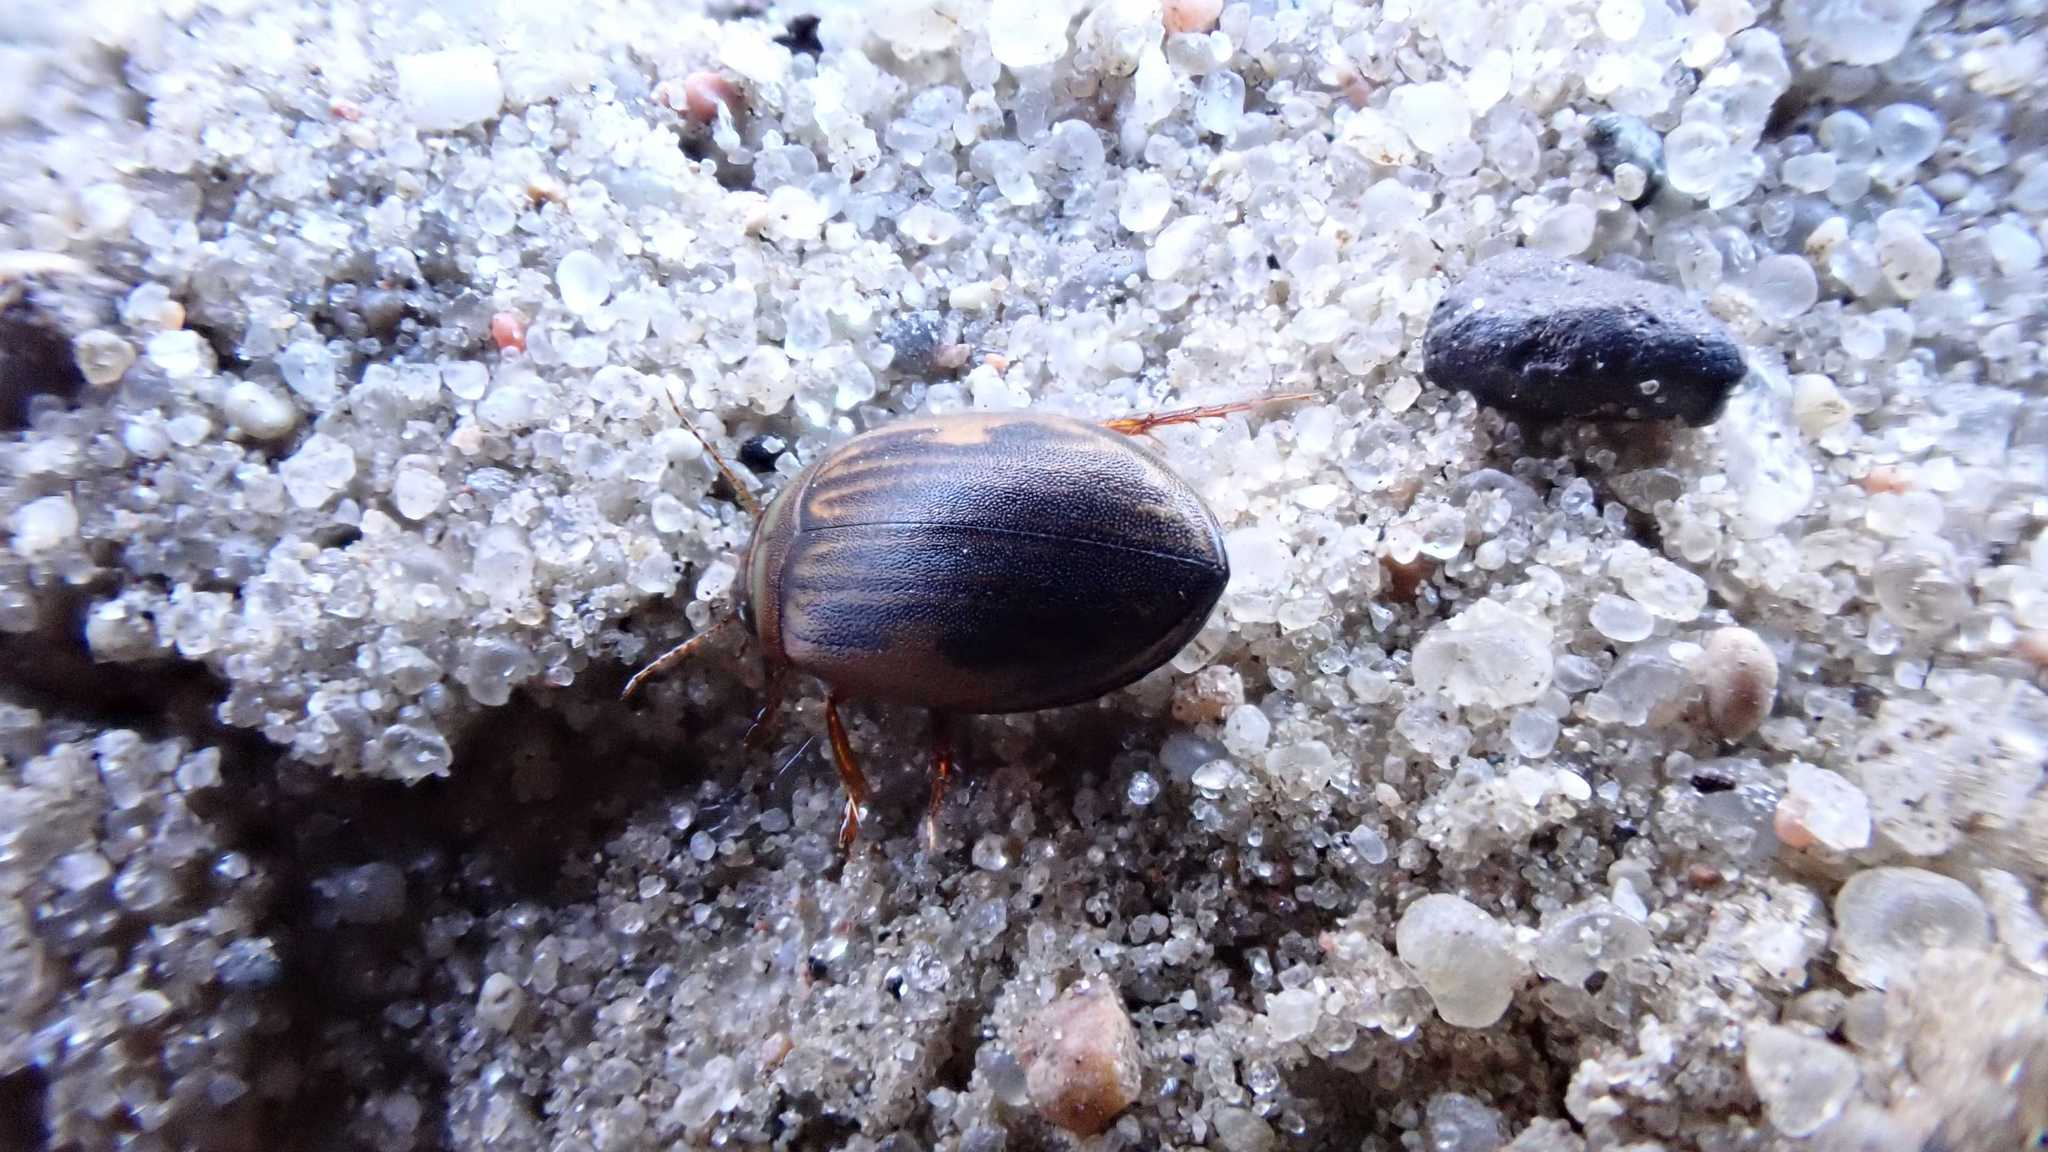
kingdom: Animalia
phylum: Arthropoda
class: Insecta
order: Coleoptera
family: Dytiscidae
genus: Hygrotus
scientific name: Hygrotus impressopunctatus
